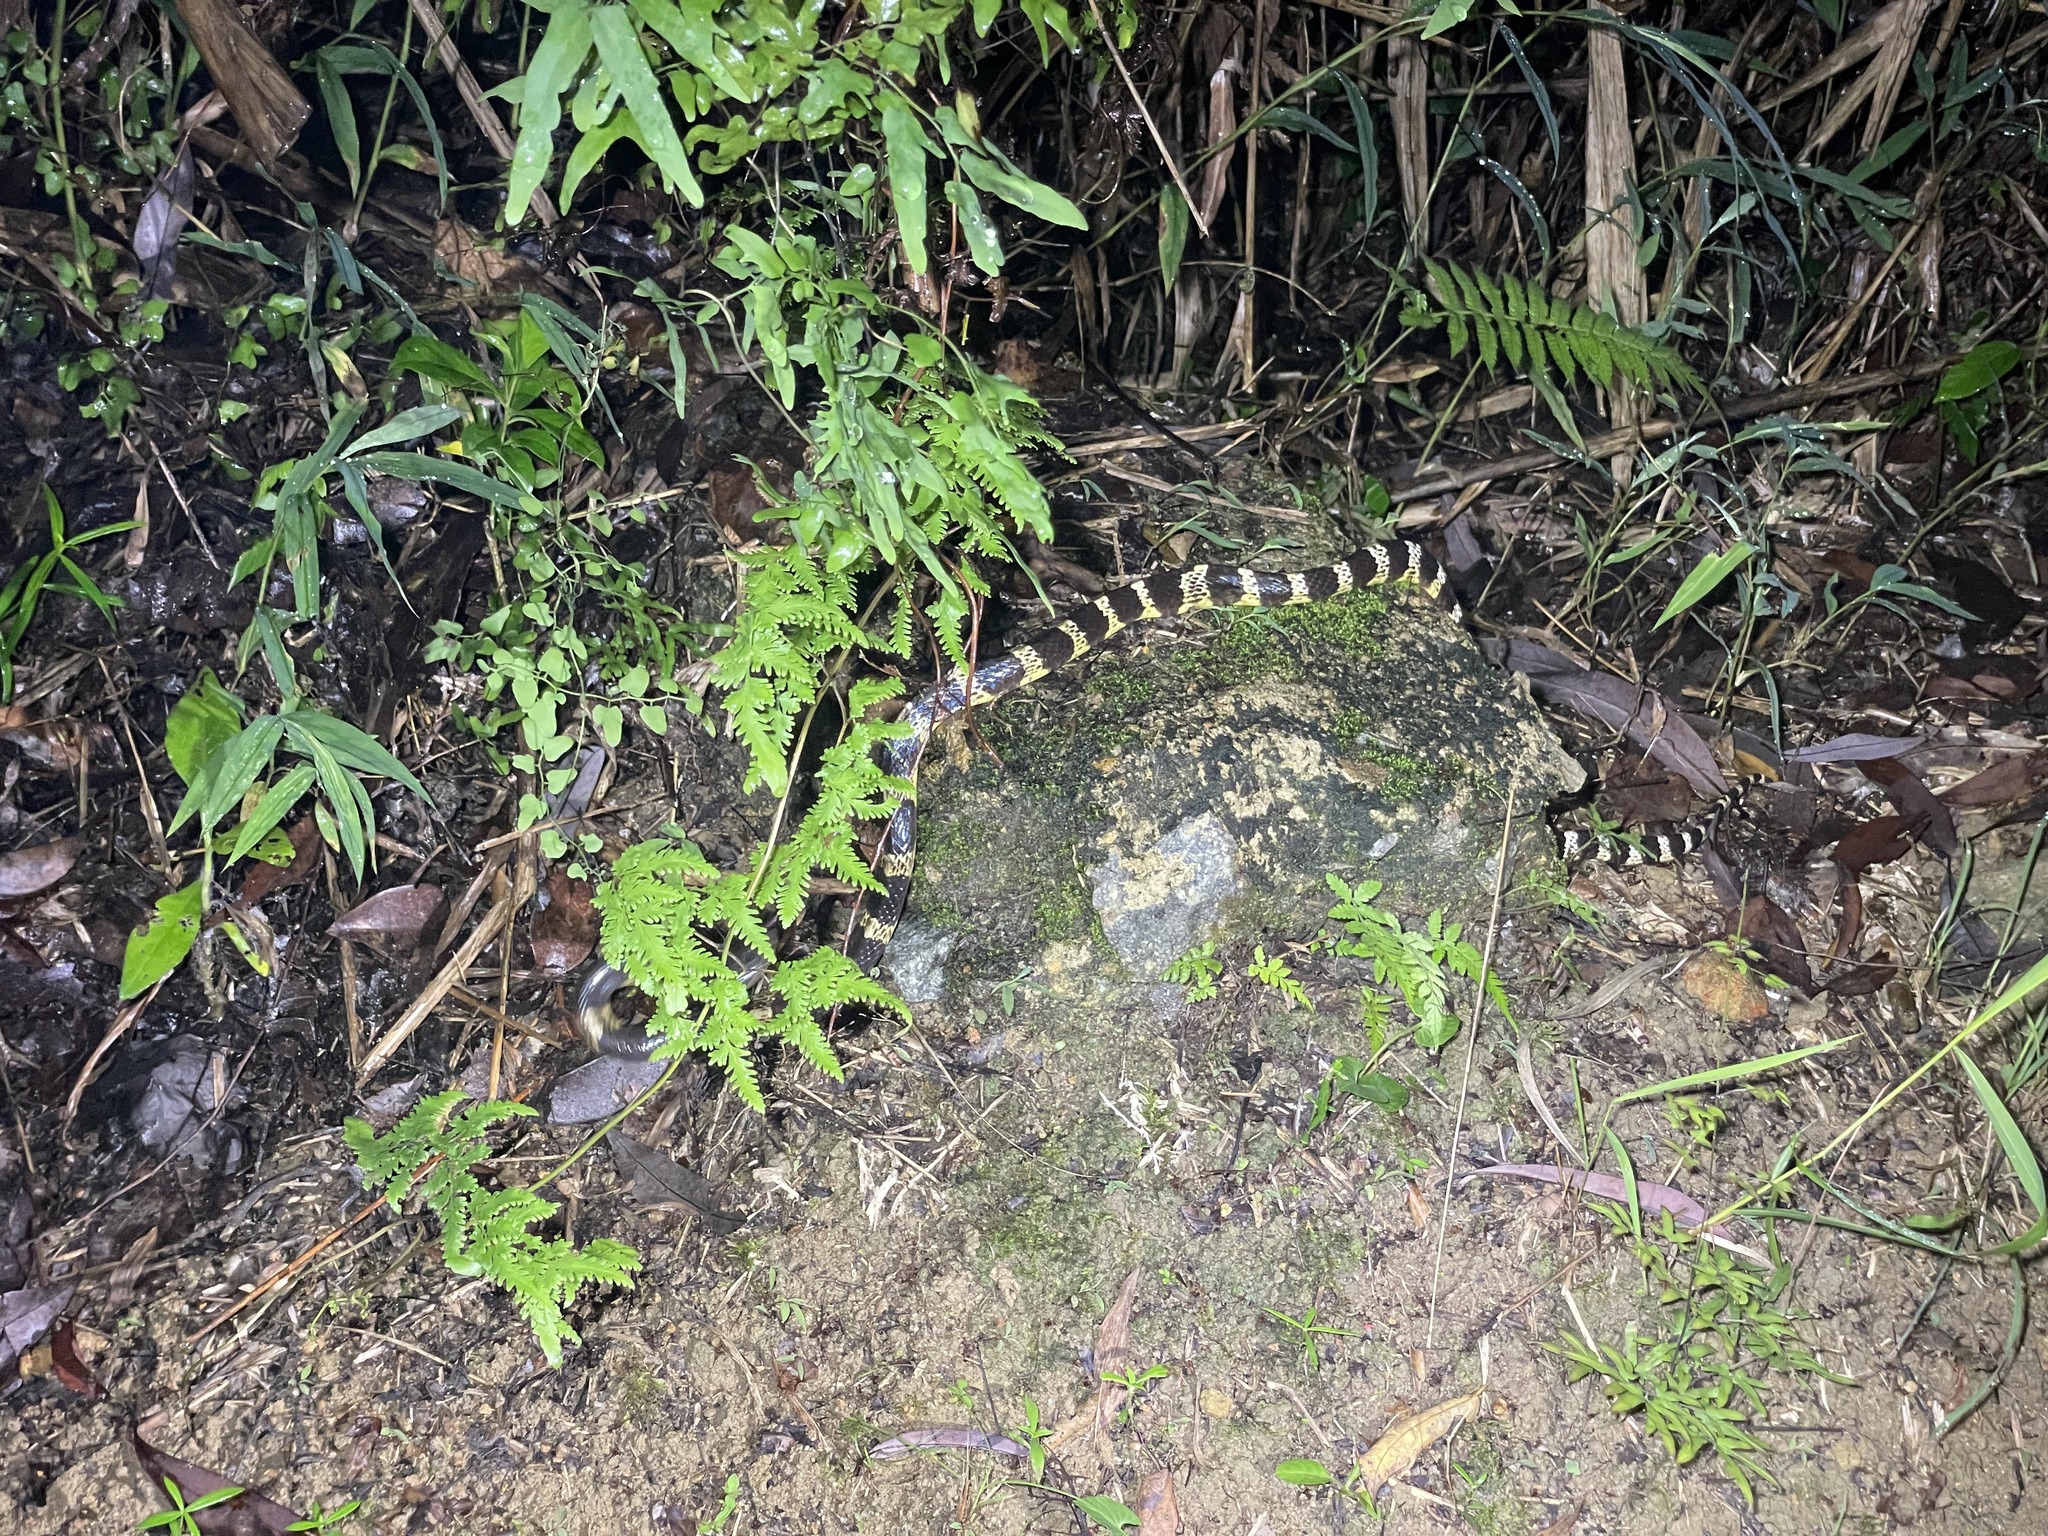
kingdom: Animalia
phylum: Chordata
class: Squamata
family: Elapidae
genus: Bungarus
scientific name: Bungarus multicinctus
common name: Many-banded krait
